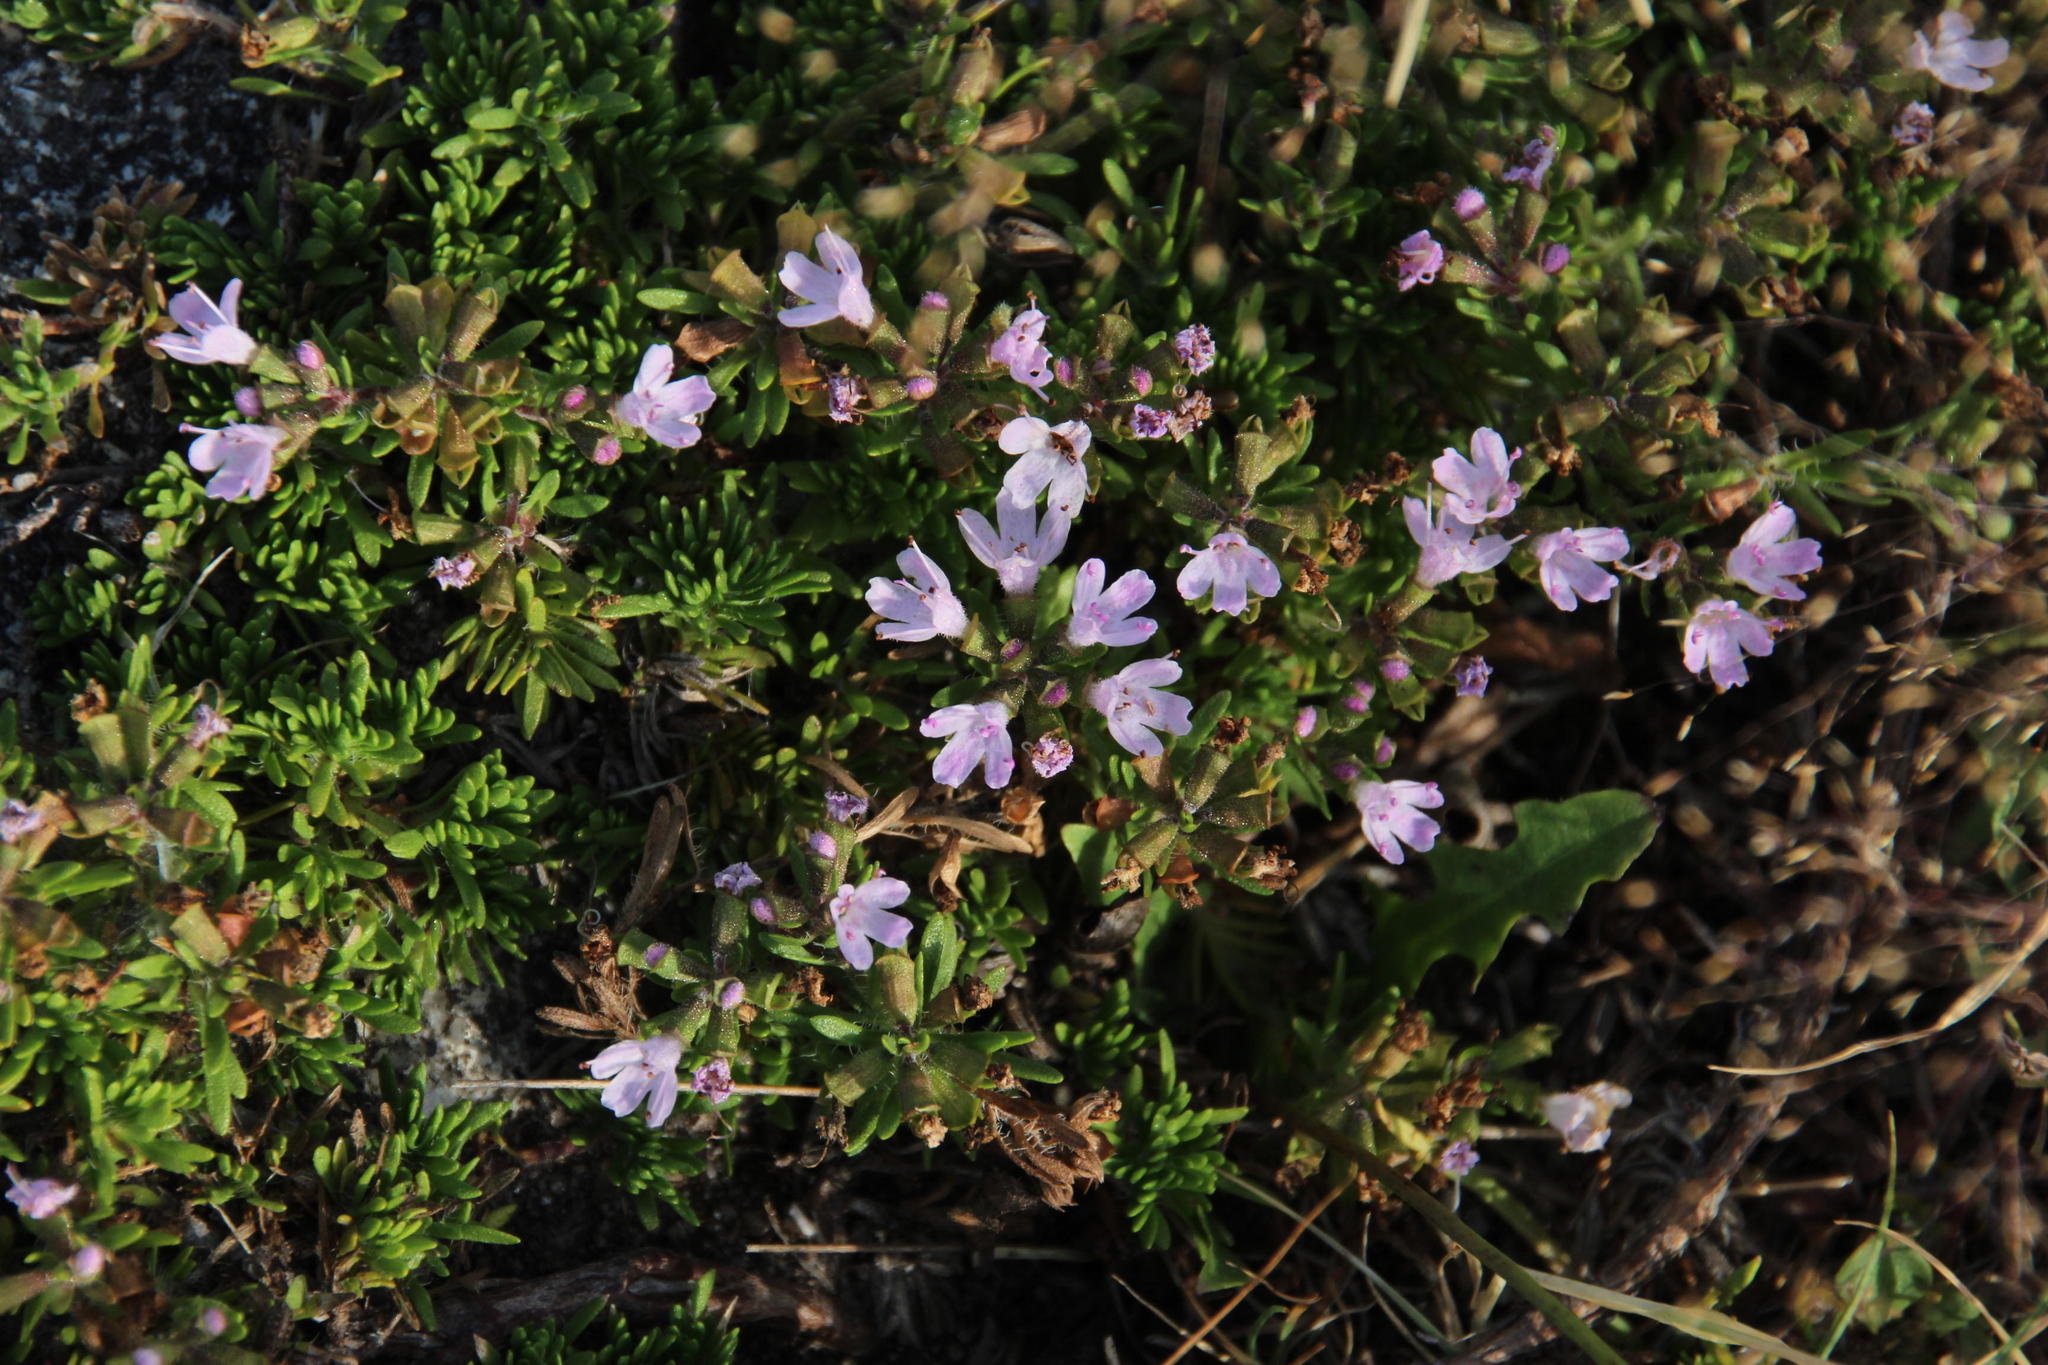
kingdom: Plantae
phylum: Tracheophyta
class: Magnoliopsida
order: Lamiales
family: Lamiaceae
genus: Thymus
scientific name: Thymus caespititius
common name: Azores thyme
